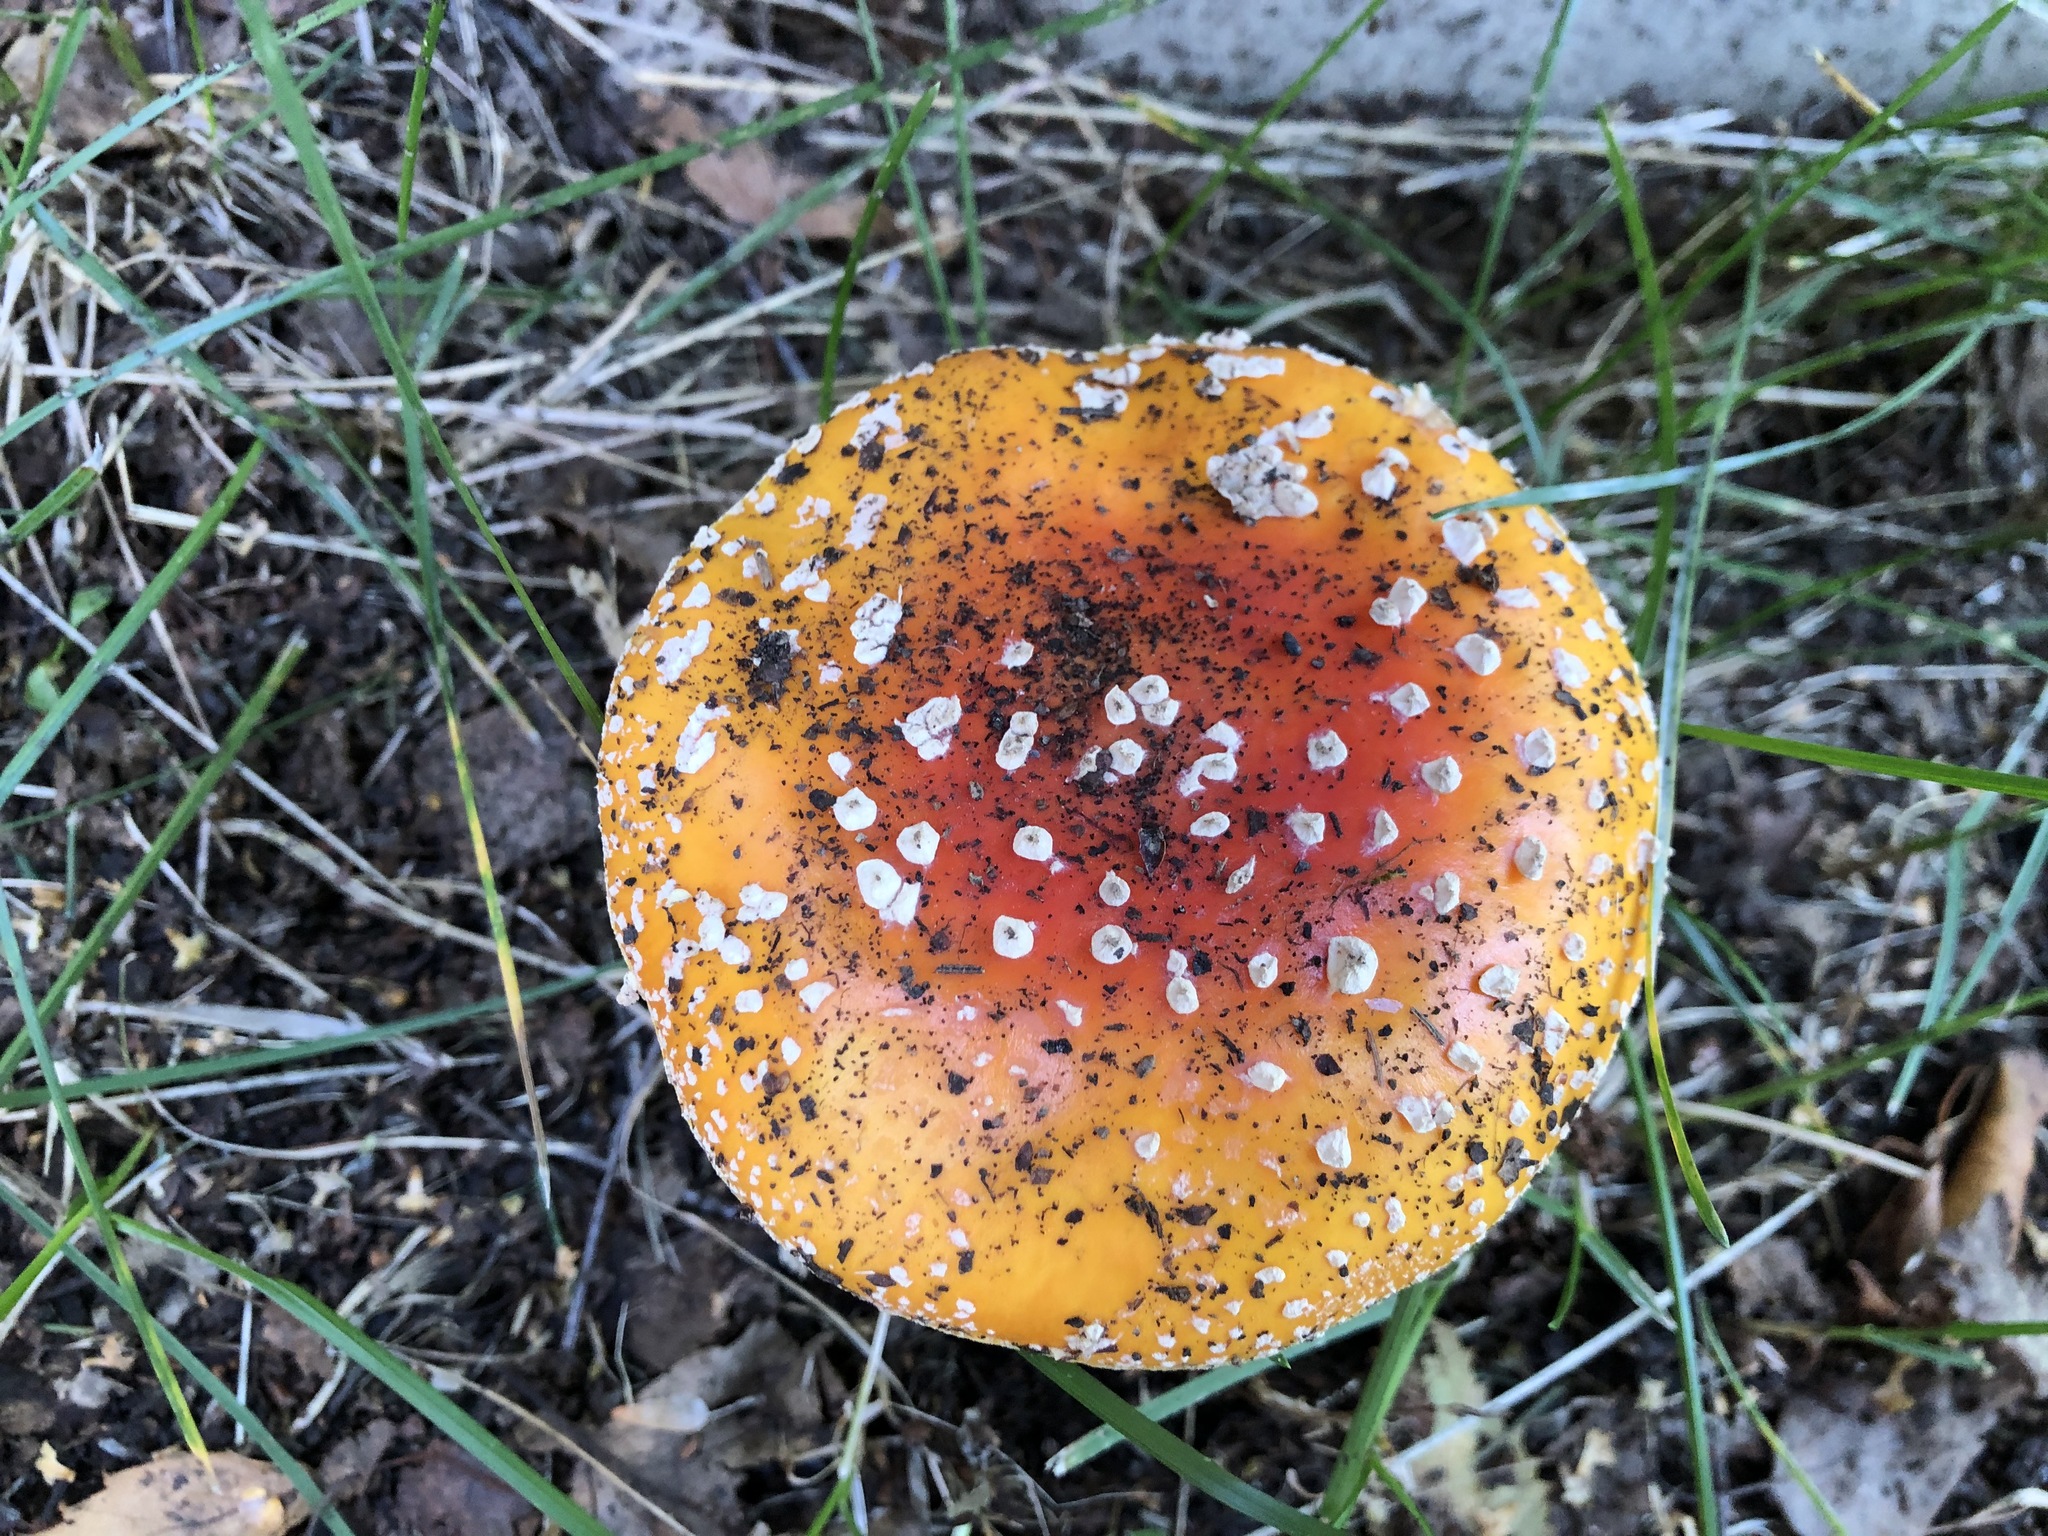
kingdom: Fungi
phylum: Basidiomycota
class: Agaricomycetes
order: Agaricales
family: Amanitaceae
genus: Amanita
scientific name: Amanita muscaria
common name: Fly agaric
